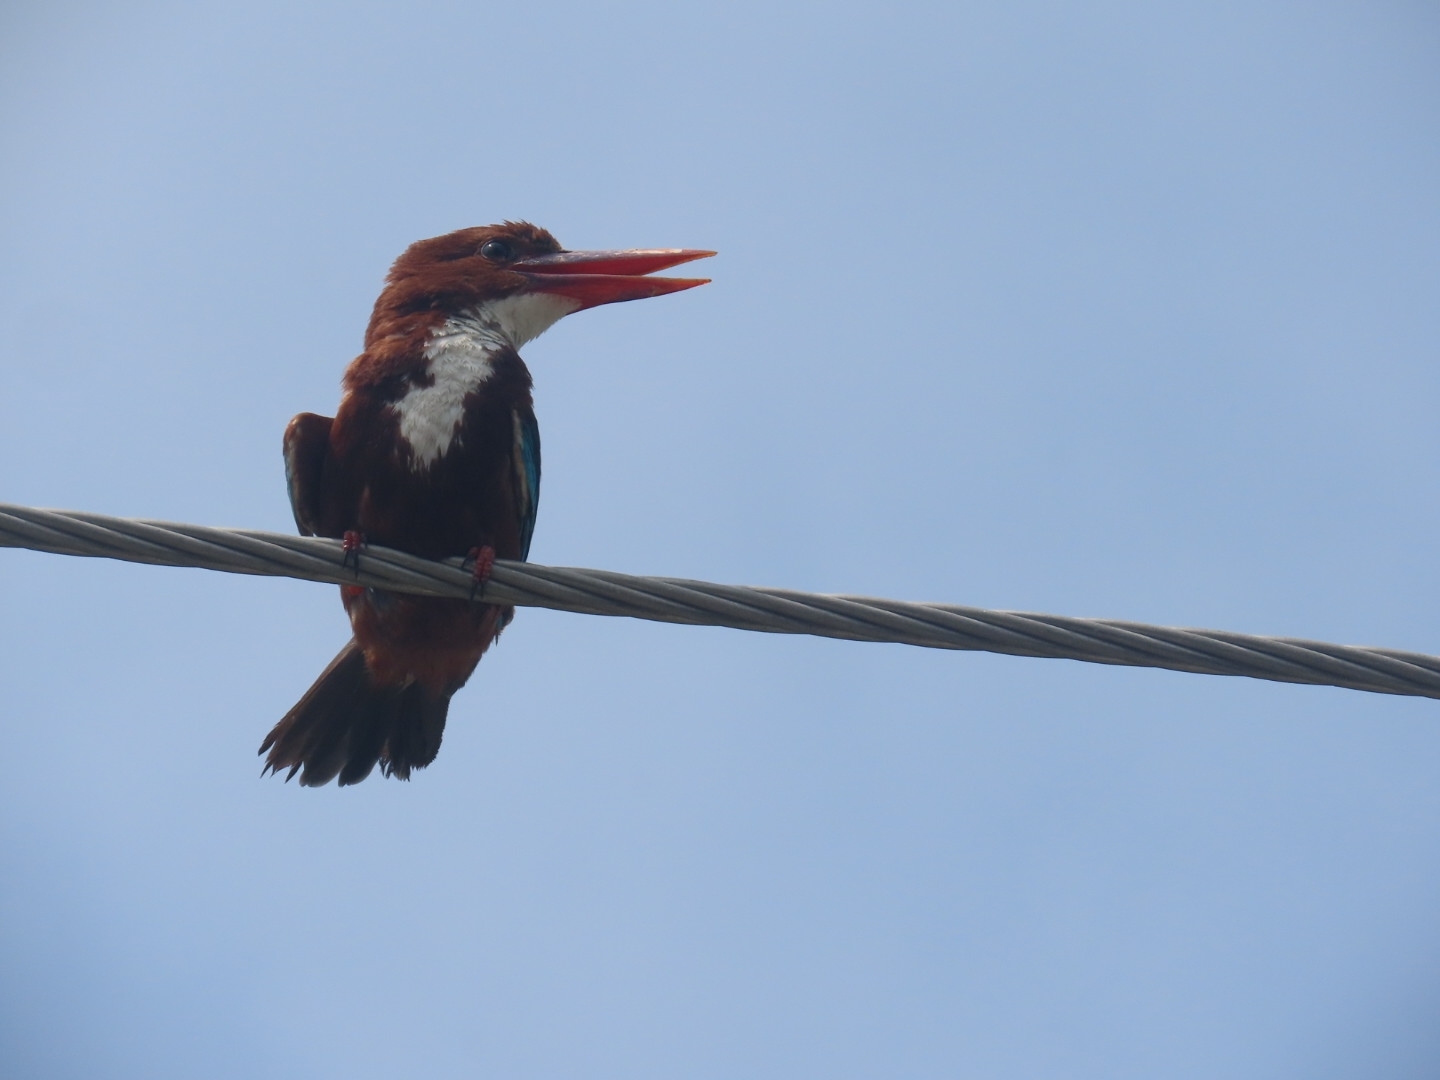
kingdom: Animalia
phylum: Chordata
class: Aves
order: Coraciiformes
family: Alcedinidae
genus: Halcyon
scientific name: Halcyon smyrnensis
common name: White-throated kingfisher
